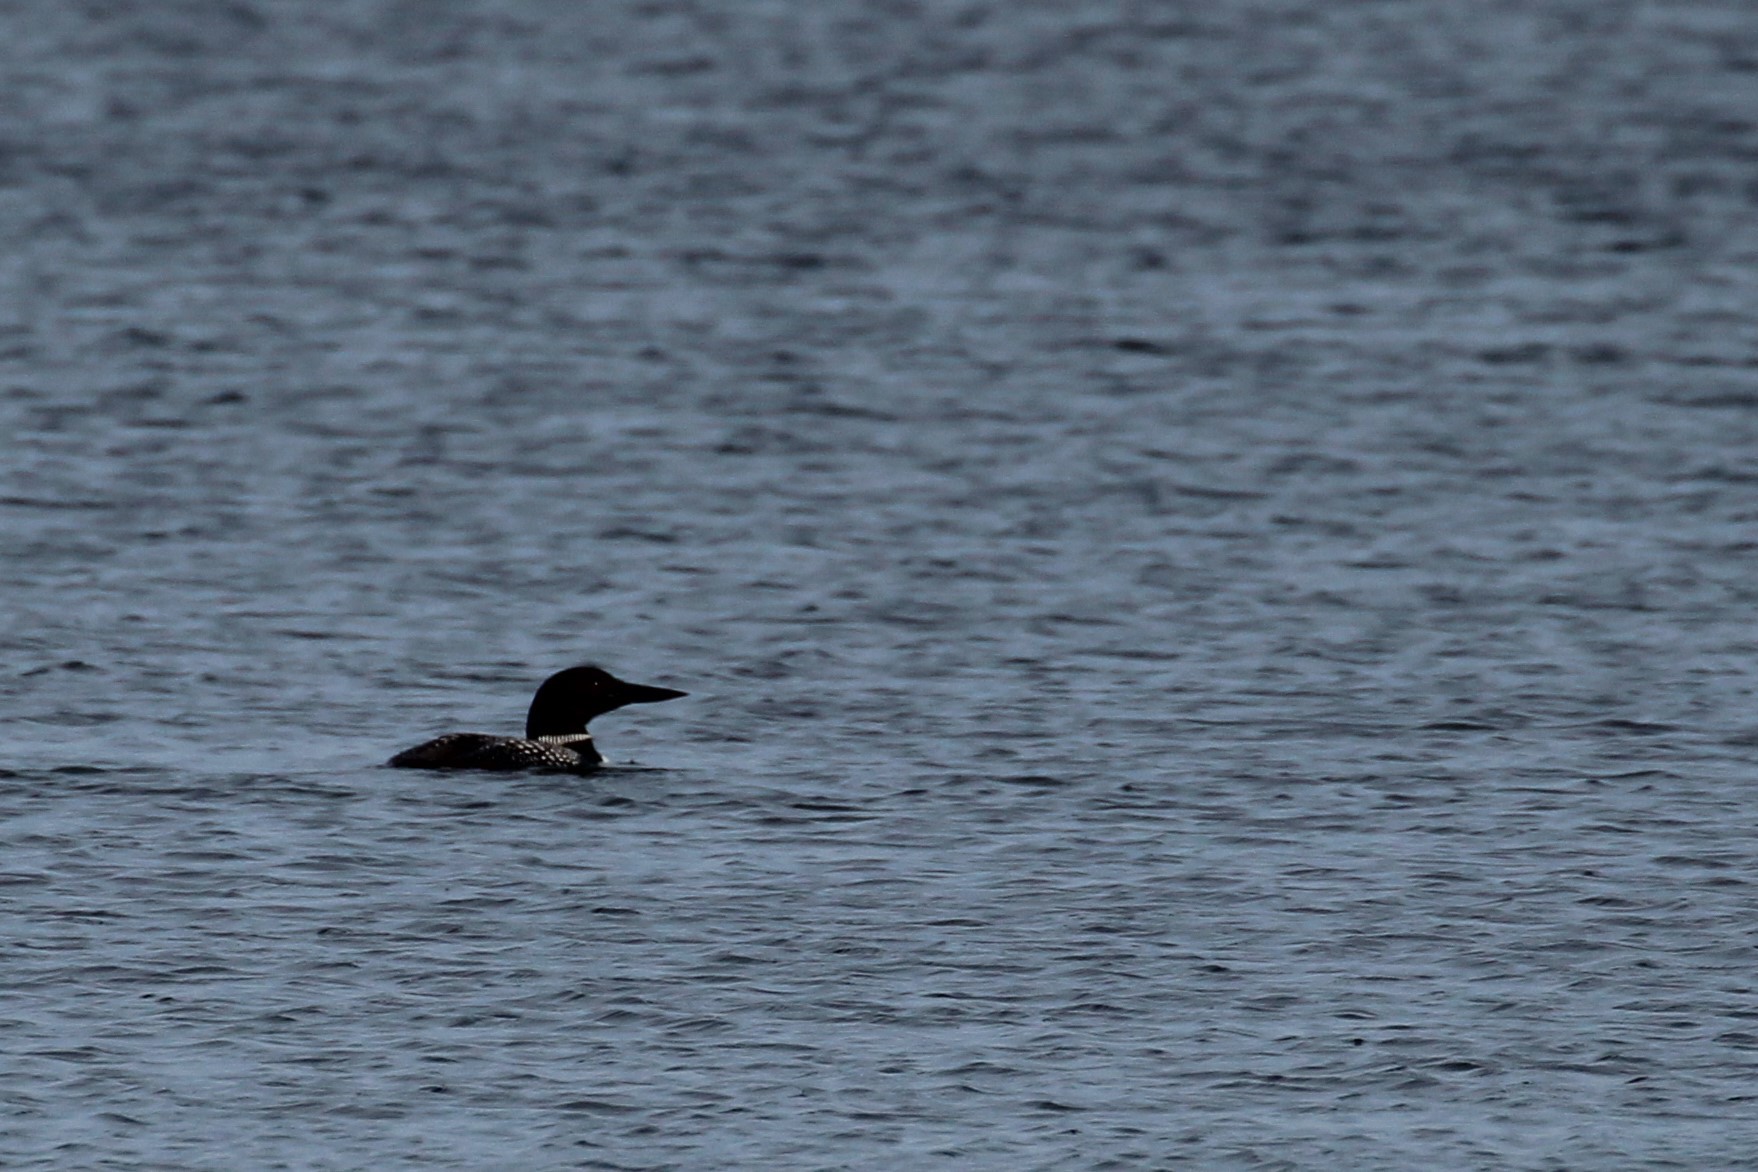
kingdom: Animalia
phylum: Chordata
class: Aves
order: Gaviiformes
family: Gaviidae
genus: Gavia
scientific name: Gavia immer
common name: Common loon
